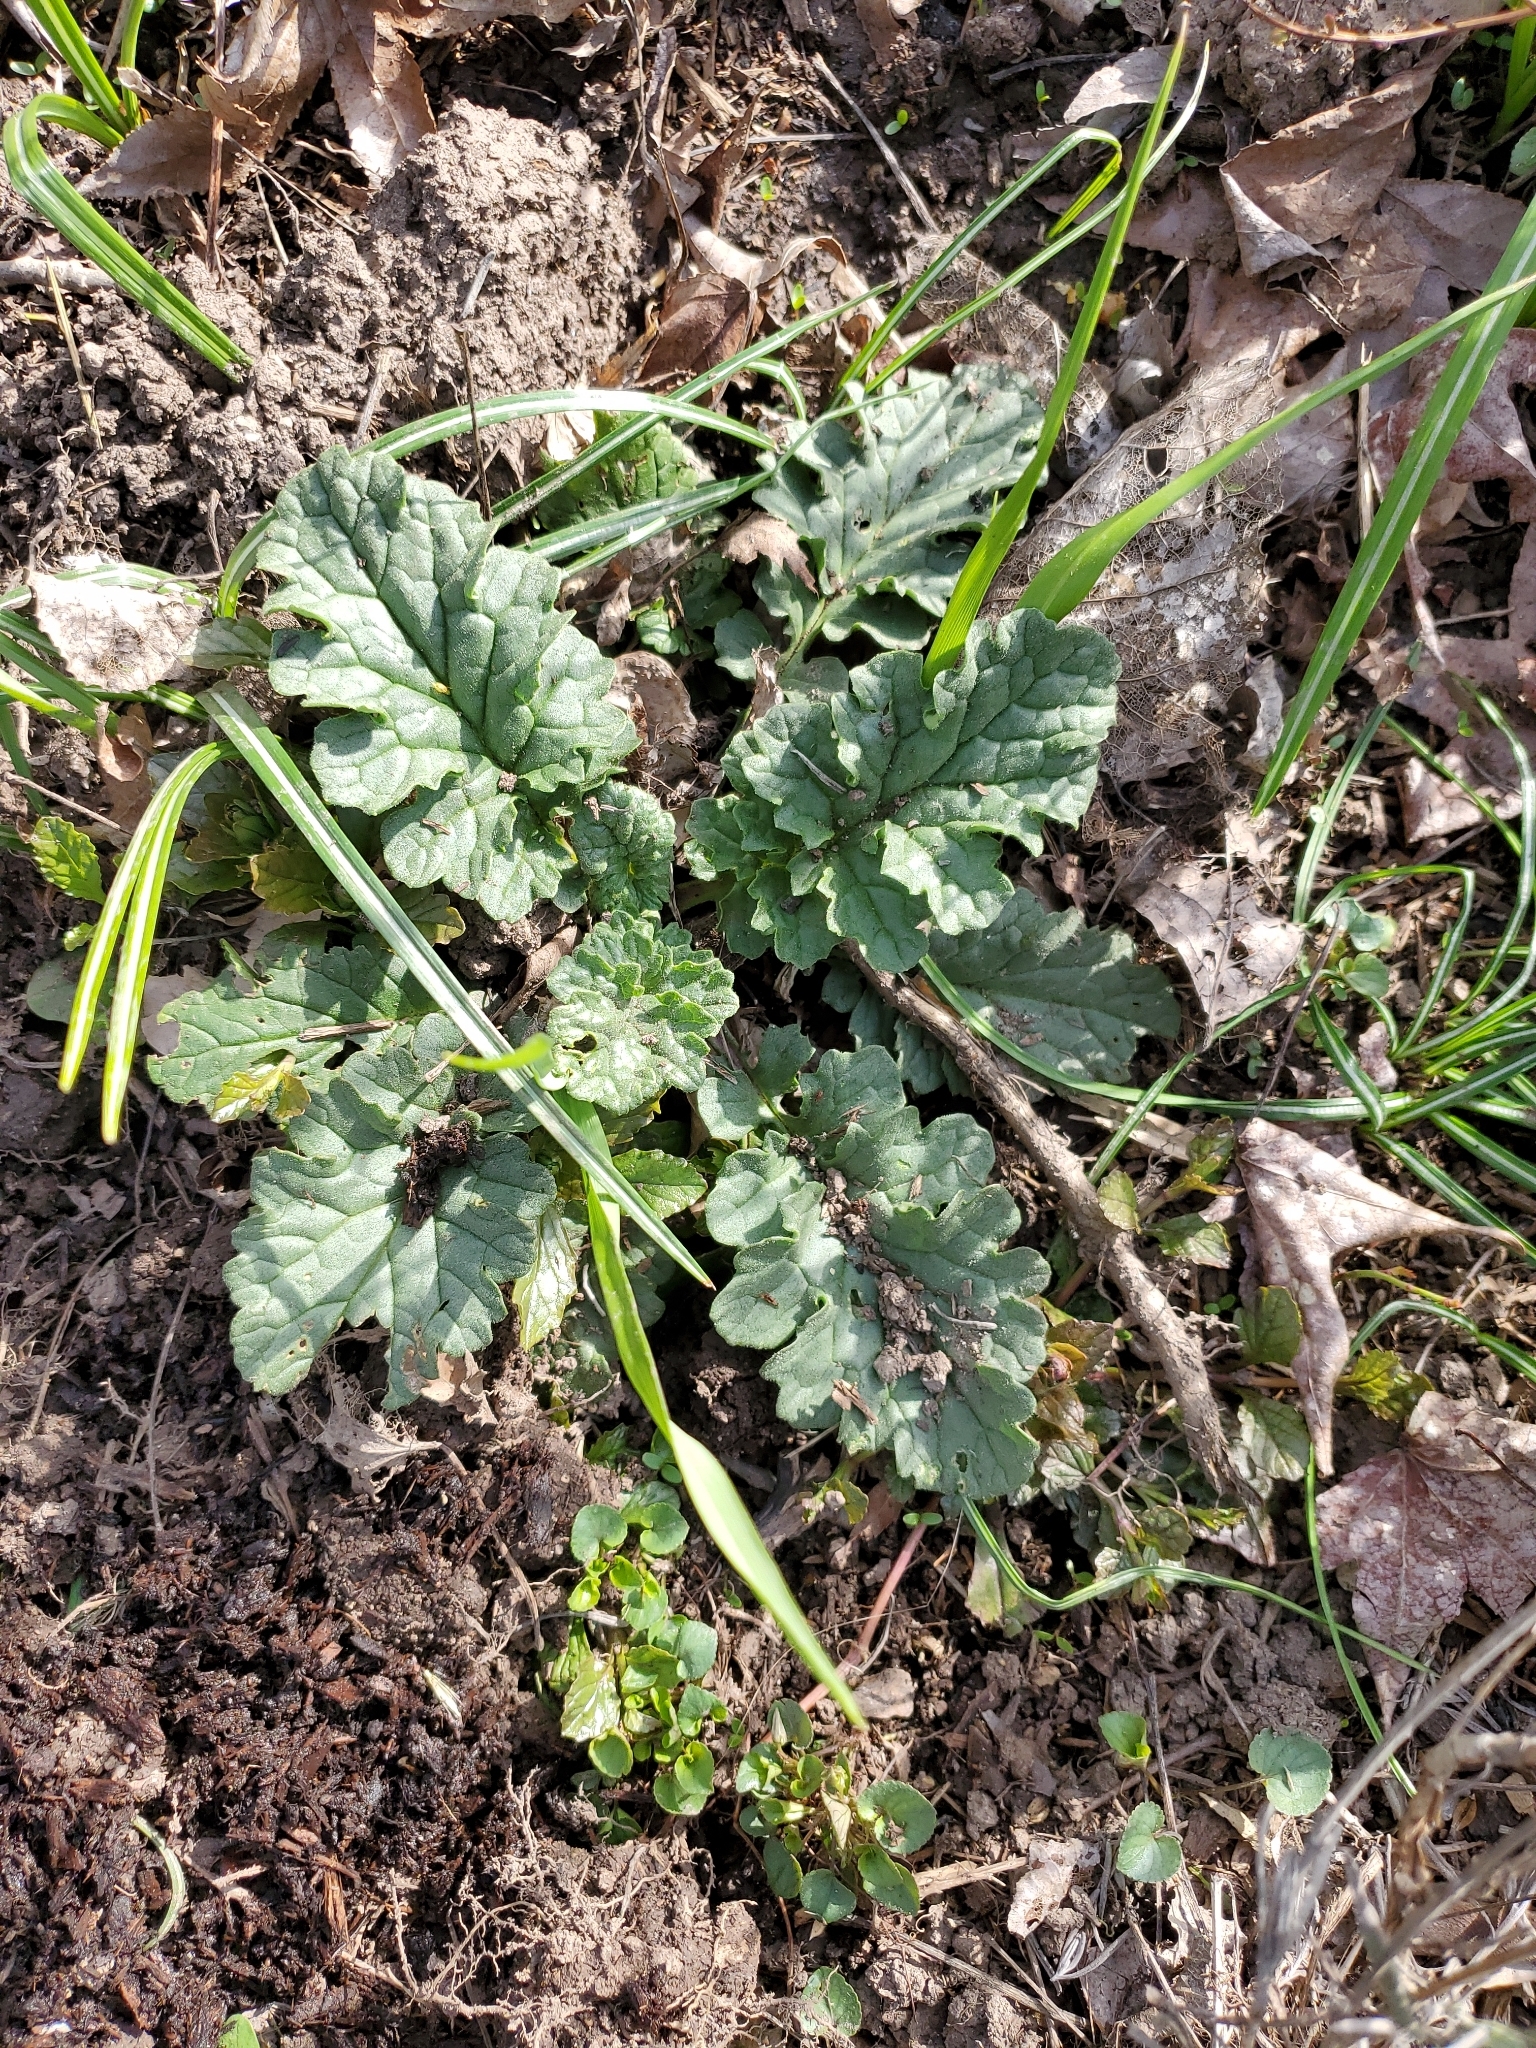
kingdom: Plantae
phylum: Tracheophyta
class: Magnoliopsida
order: Asterales
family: Asteraceae
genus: Jacobaea
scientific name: Jacobaea vulgaris
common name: Stinking willie
